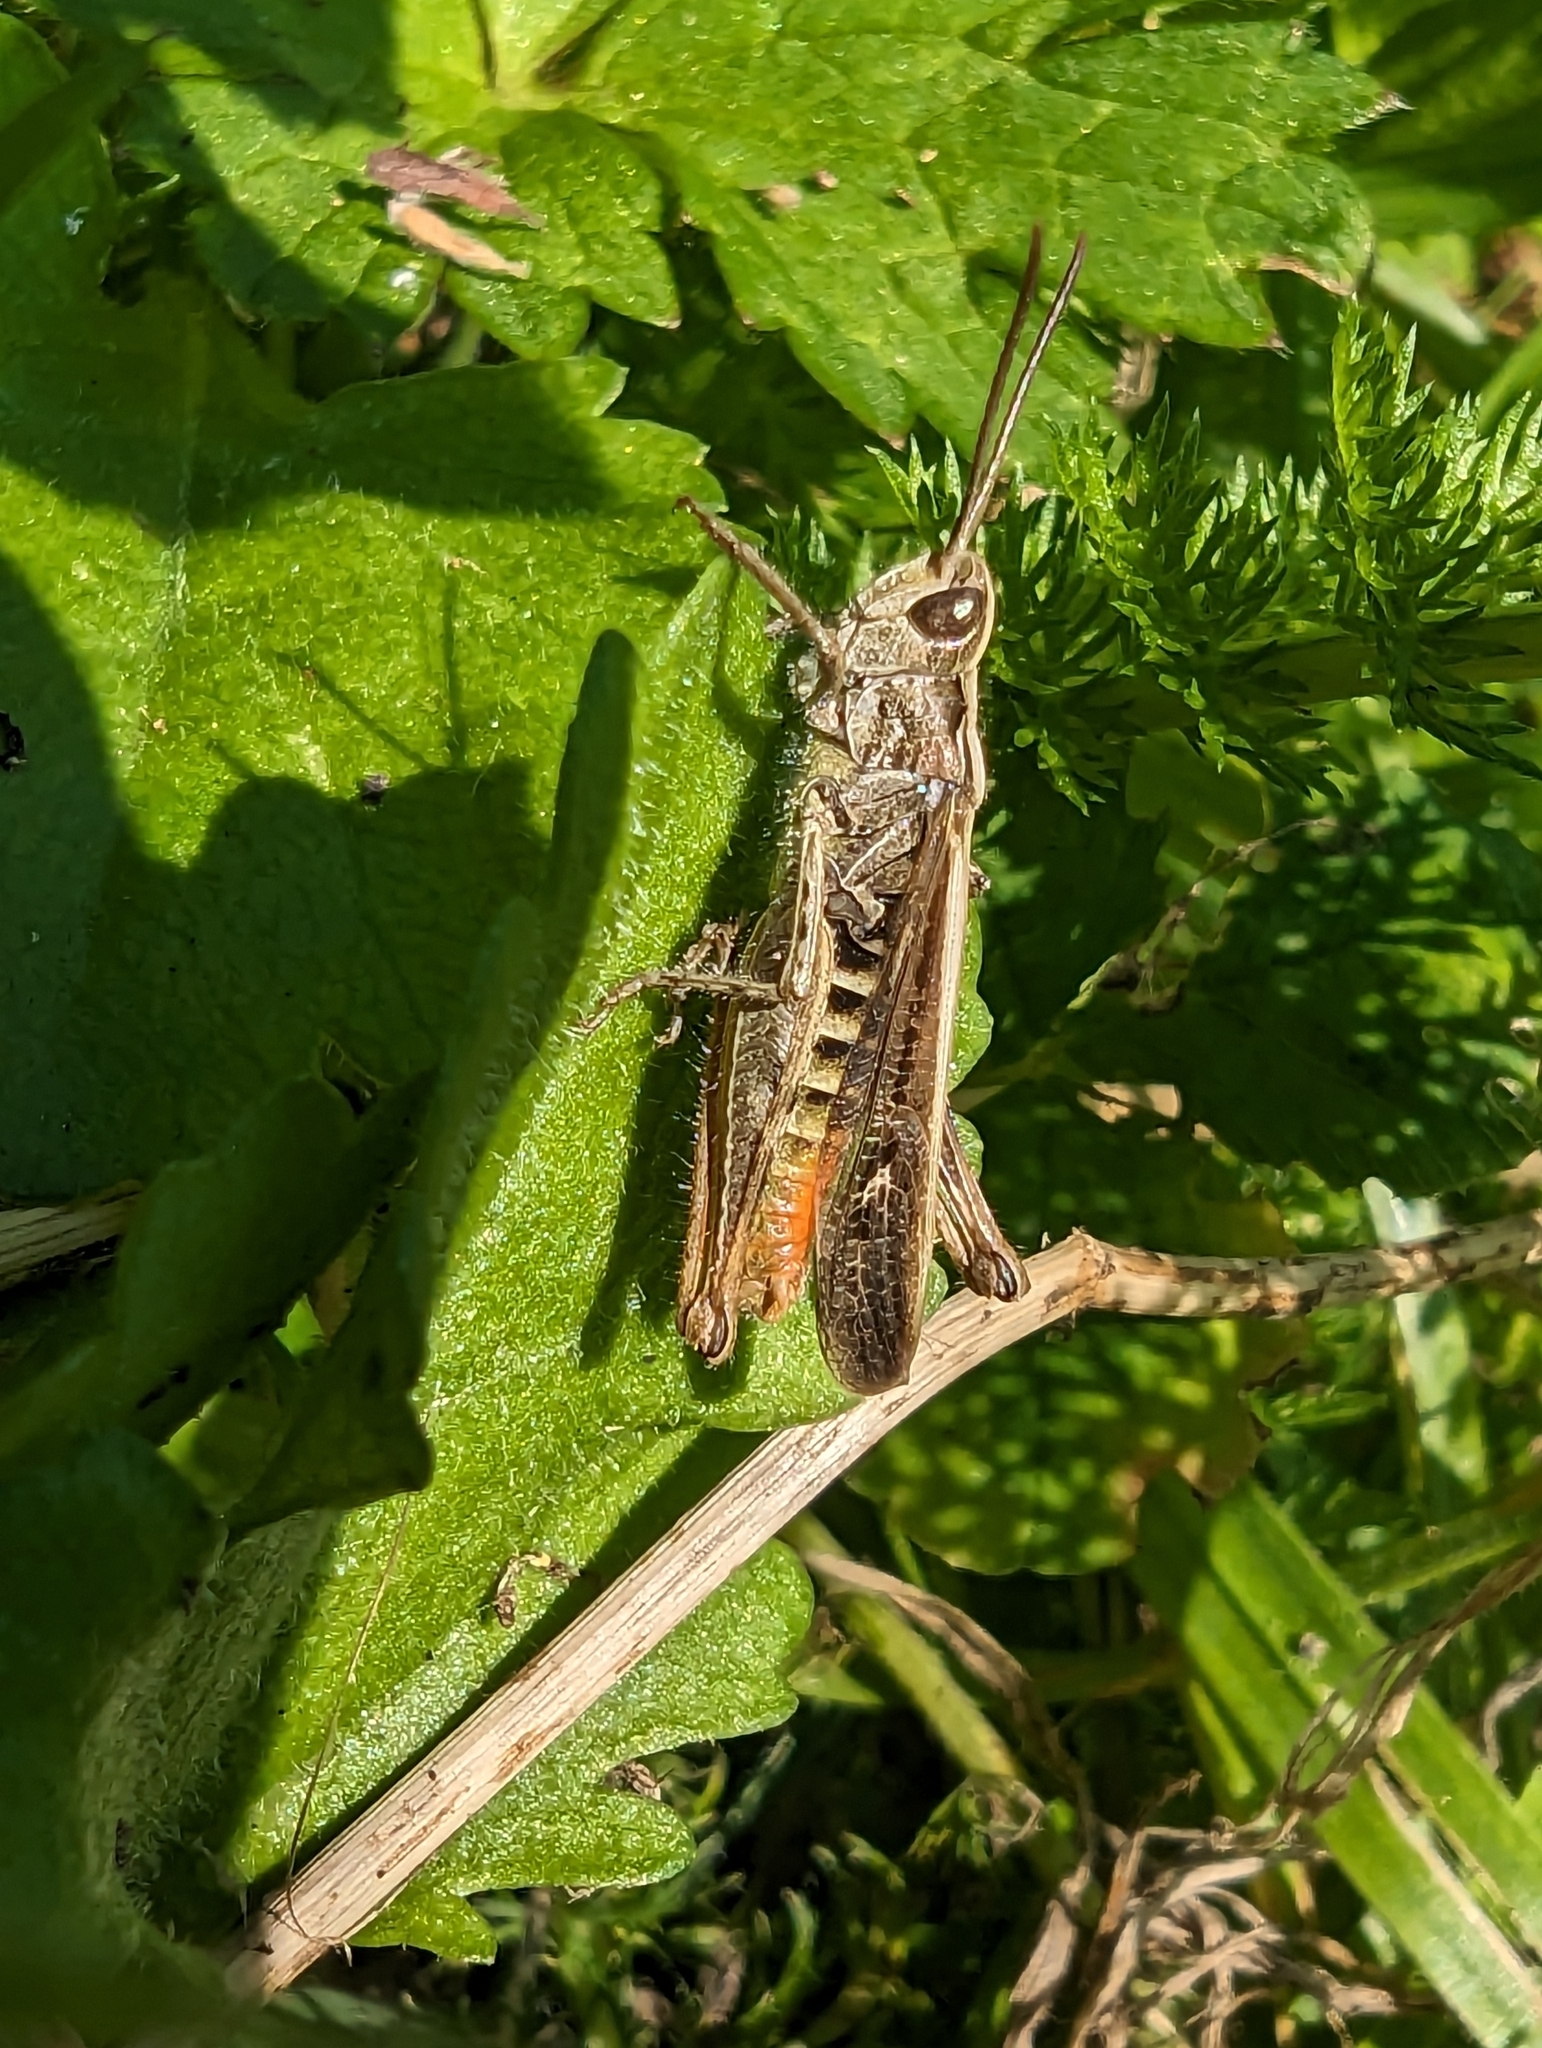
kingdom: Animalia
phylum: Arthropoda
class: Insecta
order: Orthoptera
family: Acrididae
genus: Chorthippus
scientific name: Chorthippus brunneus
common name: Field grasshopper
